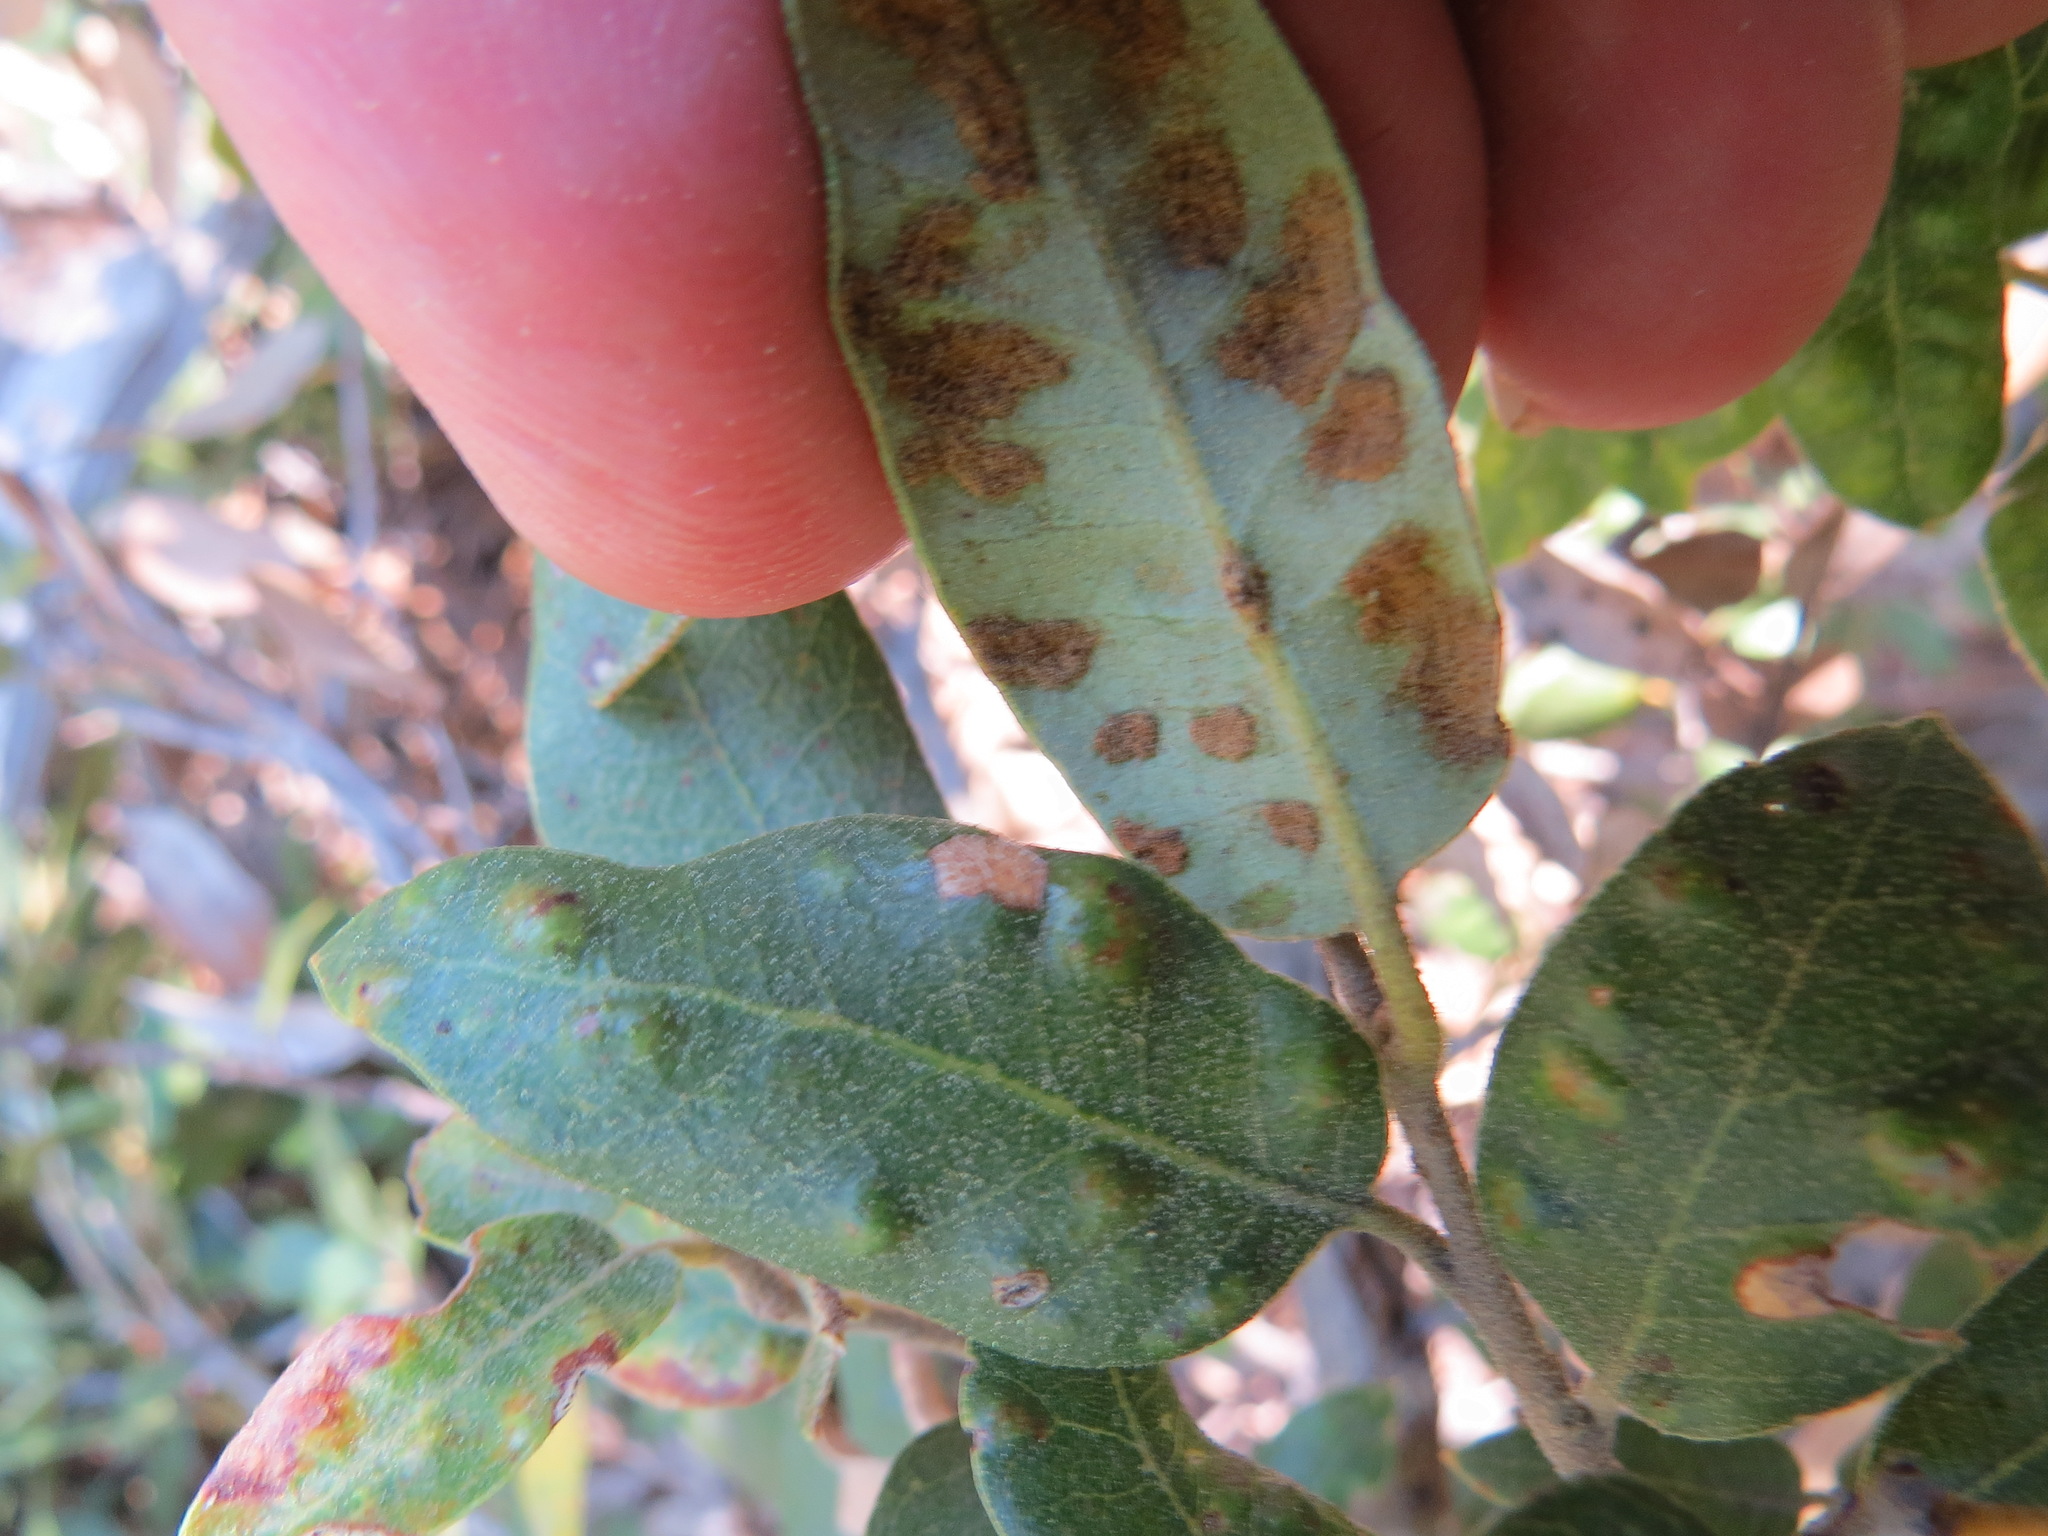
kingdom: Animalia
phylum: Arthropoda
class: Arachnida
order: Trombidiformes
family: Eriophyidae
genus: Aceria
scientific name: Aceria
